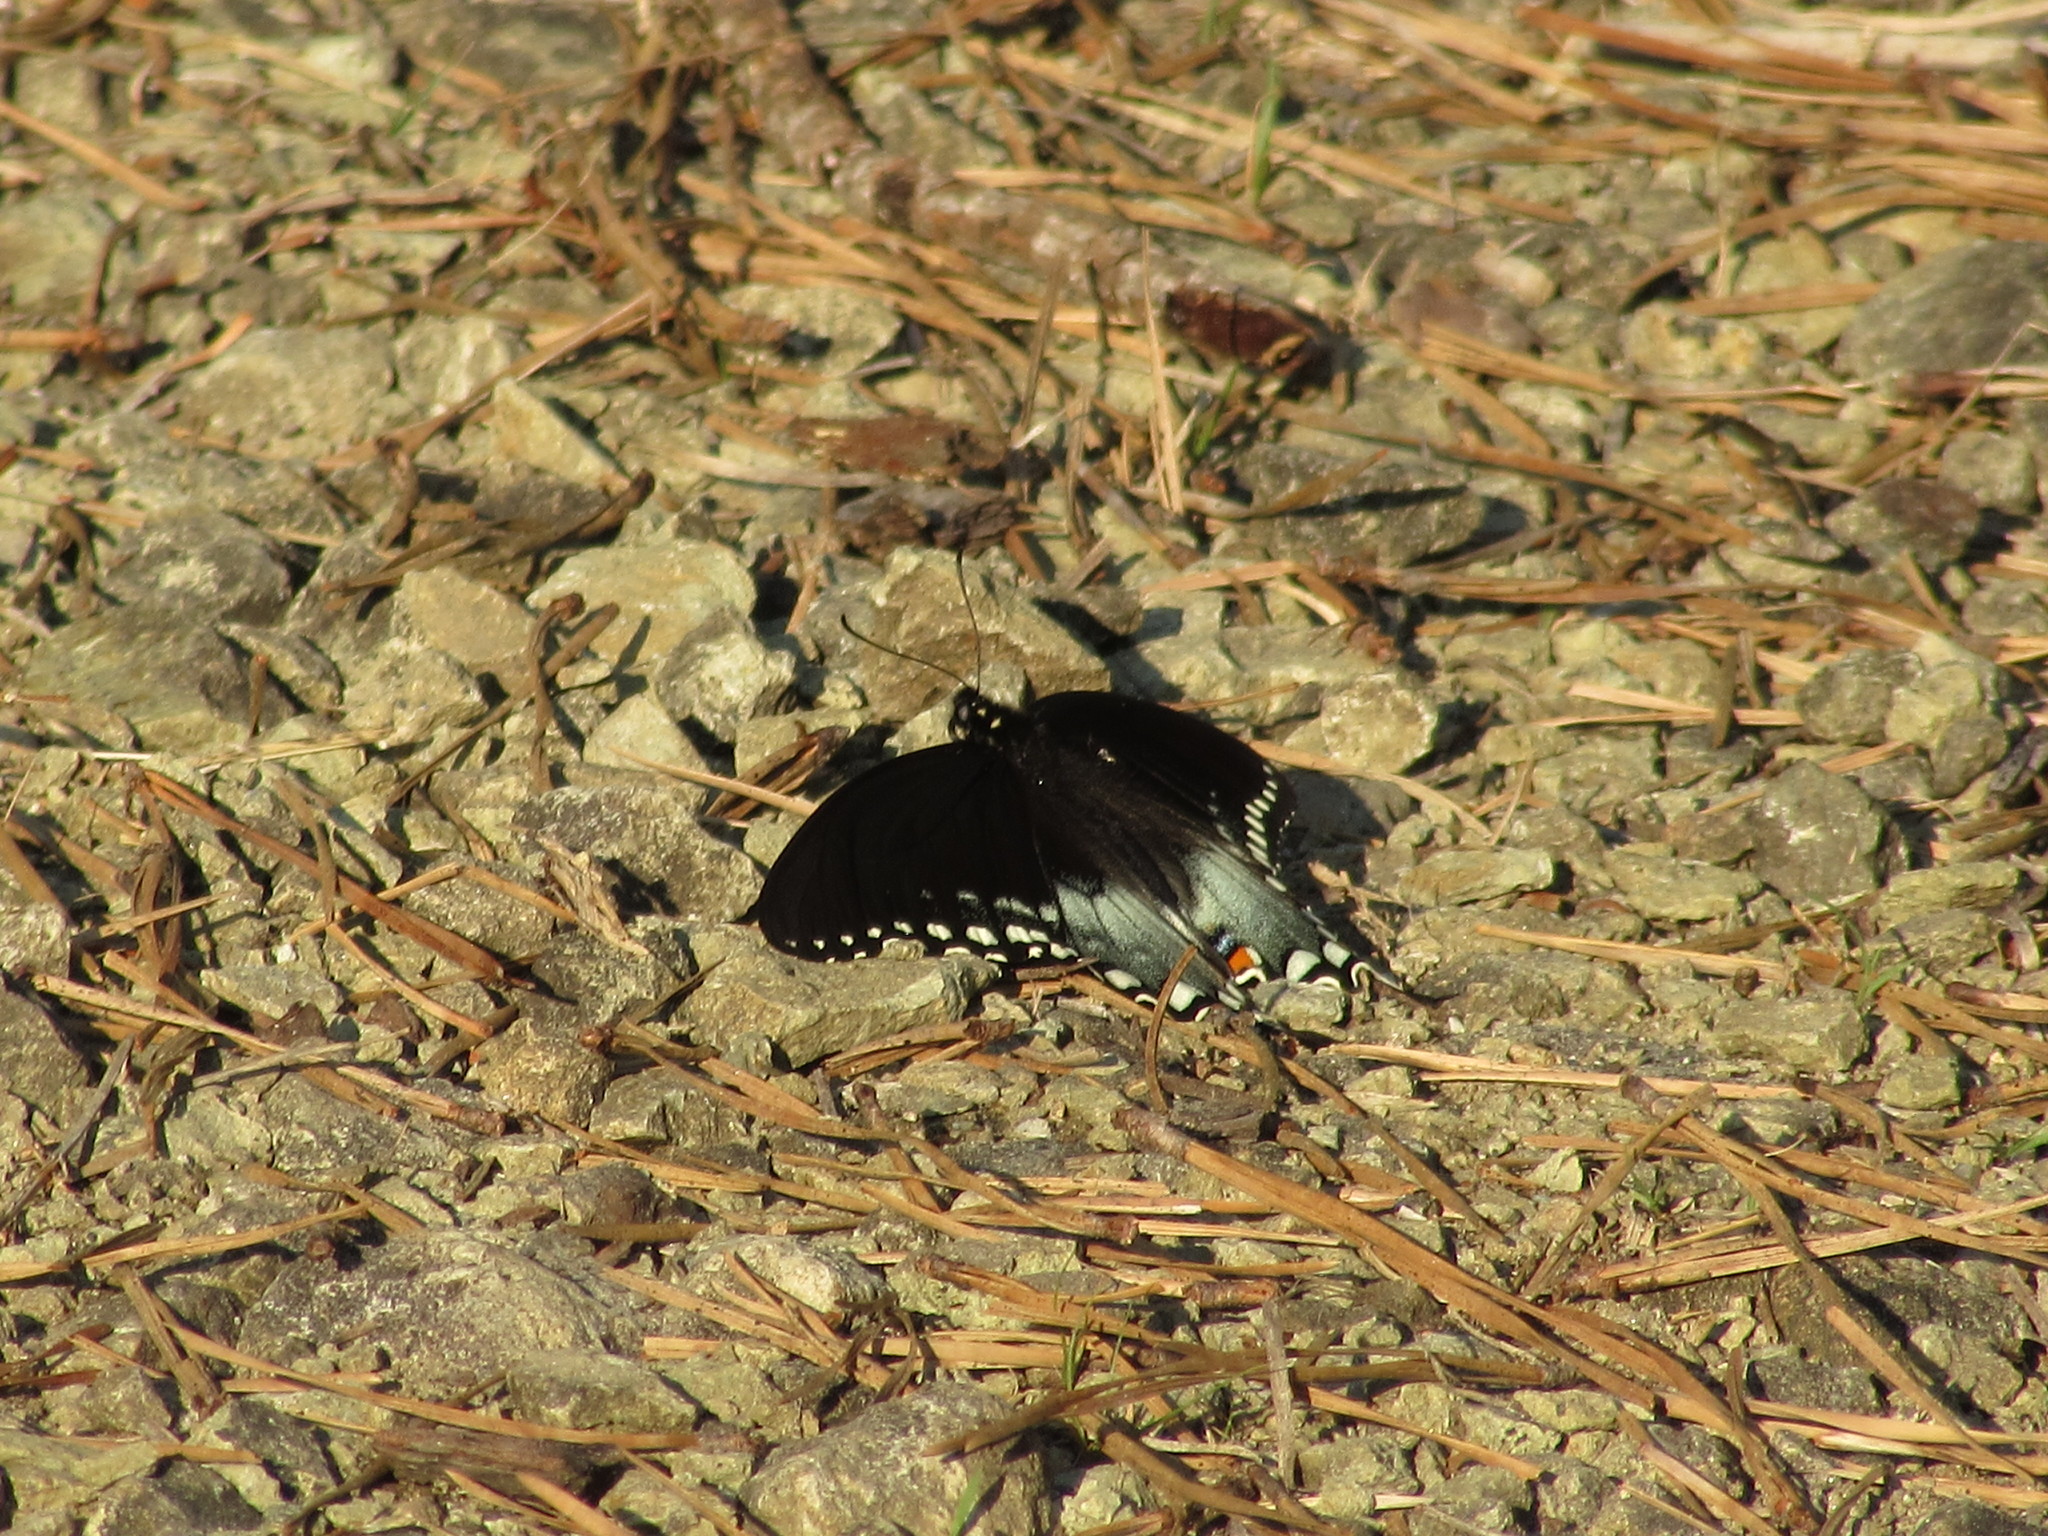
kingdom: Animalia
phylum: Arthropoda
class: Insecta
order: Lepidoptera
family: Papilionidae
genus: Papilio
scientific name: Papilio troilus
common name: Spicebush swallowtail
